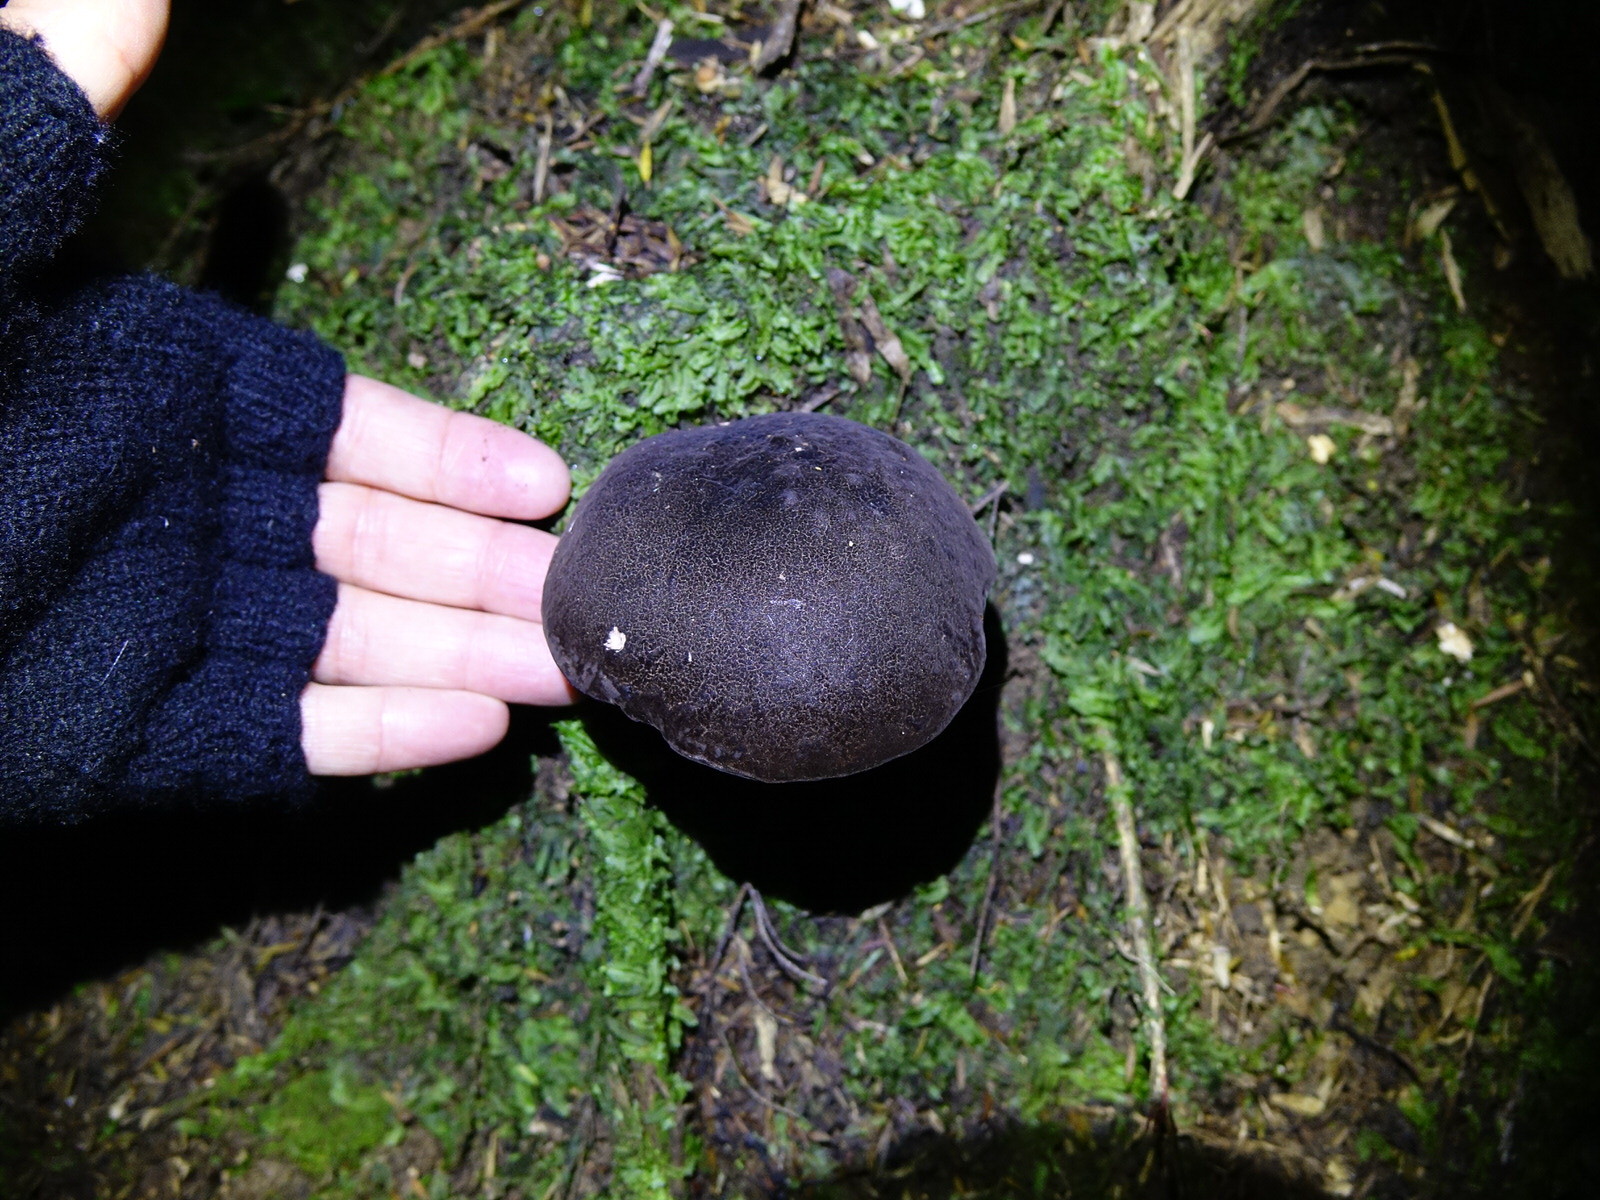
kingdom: Fungi
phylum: Basidiomycota
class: Agaricomycetes
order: Boletales
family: Boletaceae
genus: Porphyrellus
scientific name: Porphyrellus formosus
